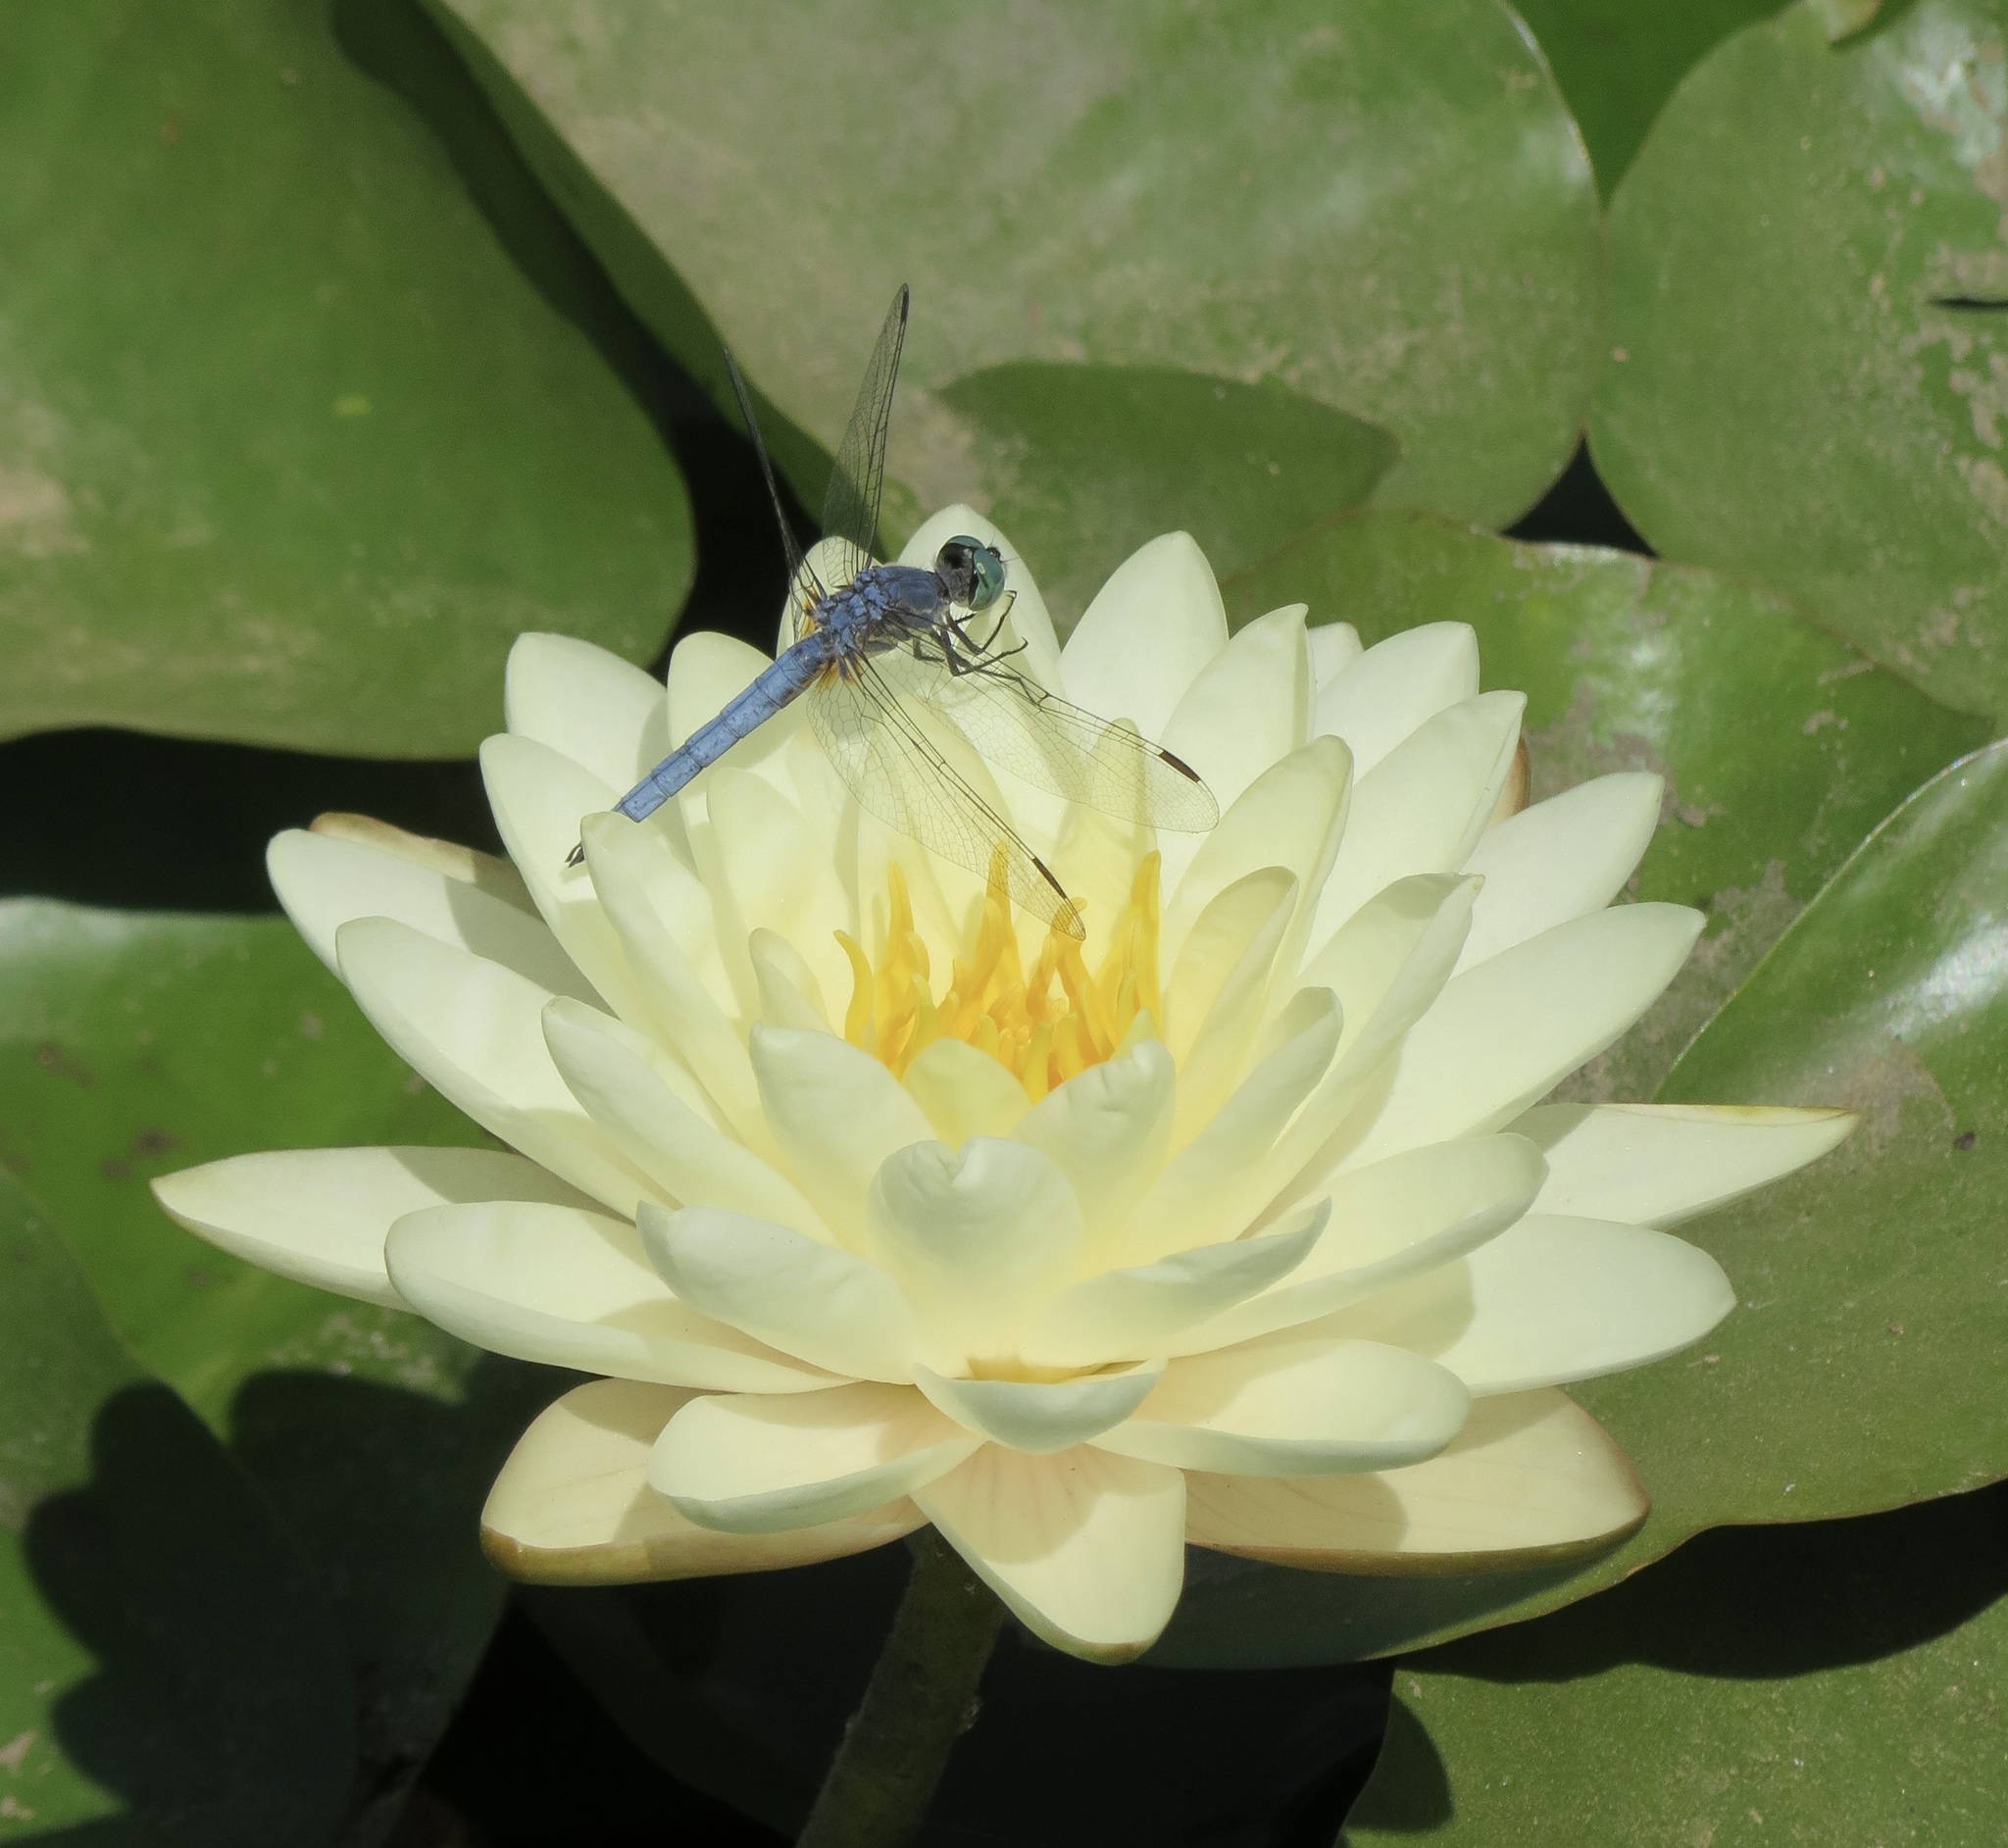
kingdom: Animalia
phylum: Arthropoda
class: Insecta
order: Odonata
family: Libellulidae
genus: Pachydiplax
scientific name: Pachydiplax longipennis
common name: Blue dasher
